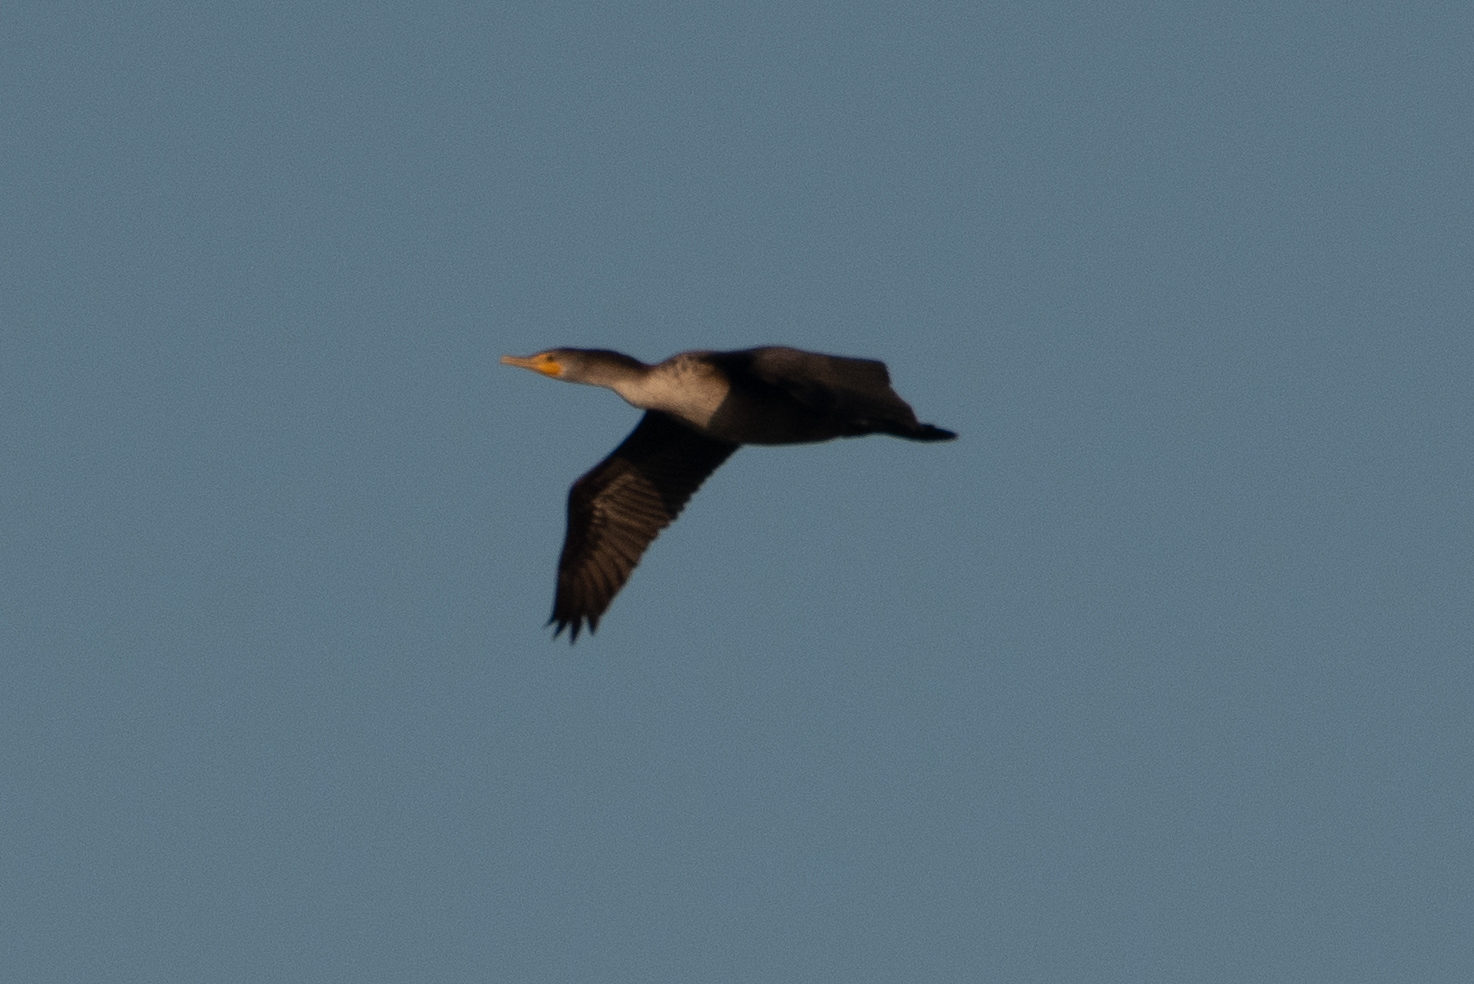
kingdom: Animalia
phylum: Chordata
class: Aves
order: Suliformes
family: Phalacrocoracidae
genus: Phalacrocorax
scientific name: Phalacrocorax auritus
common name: Double-crested cormorant
